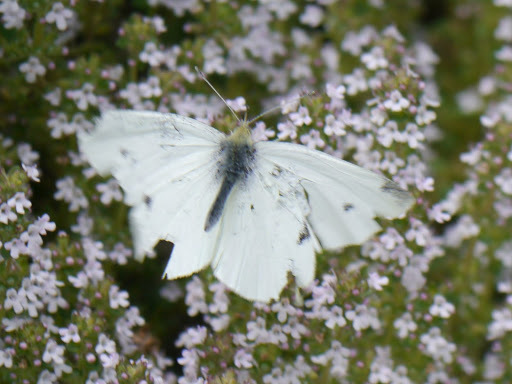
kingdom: Animalia
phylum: Arthropoda
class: Insecta
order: Lepidoptera
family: Pieridae
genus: Pieris
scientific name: Pieris rapae
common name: Small white
